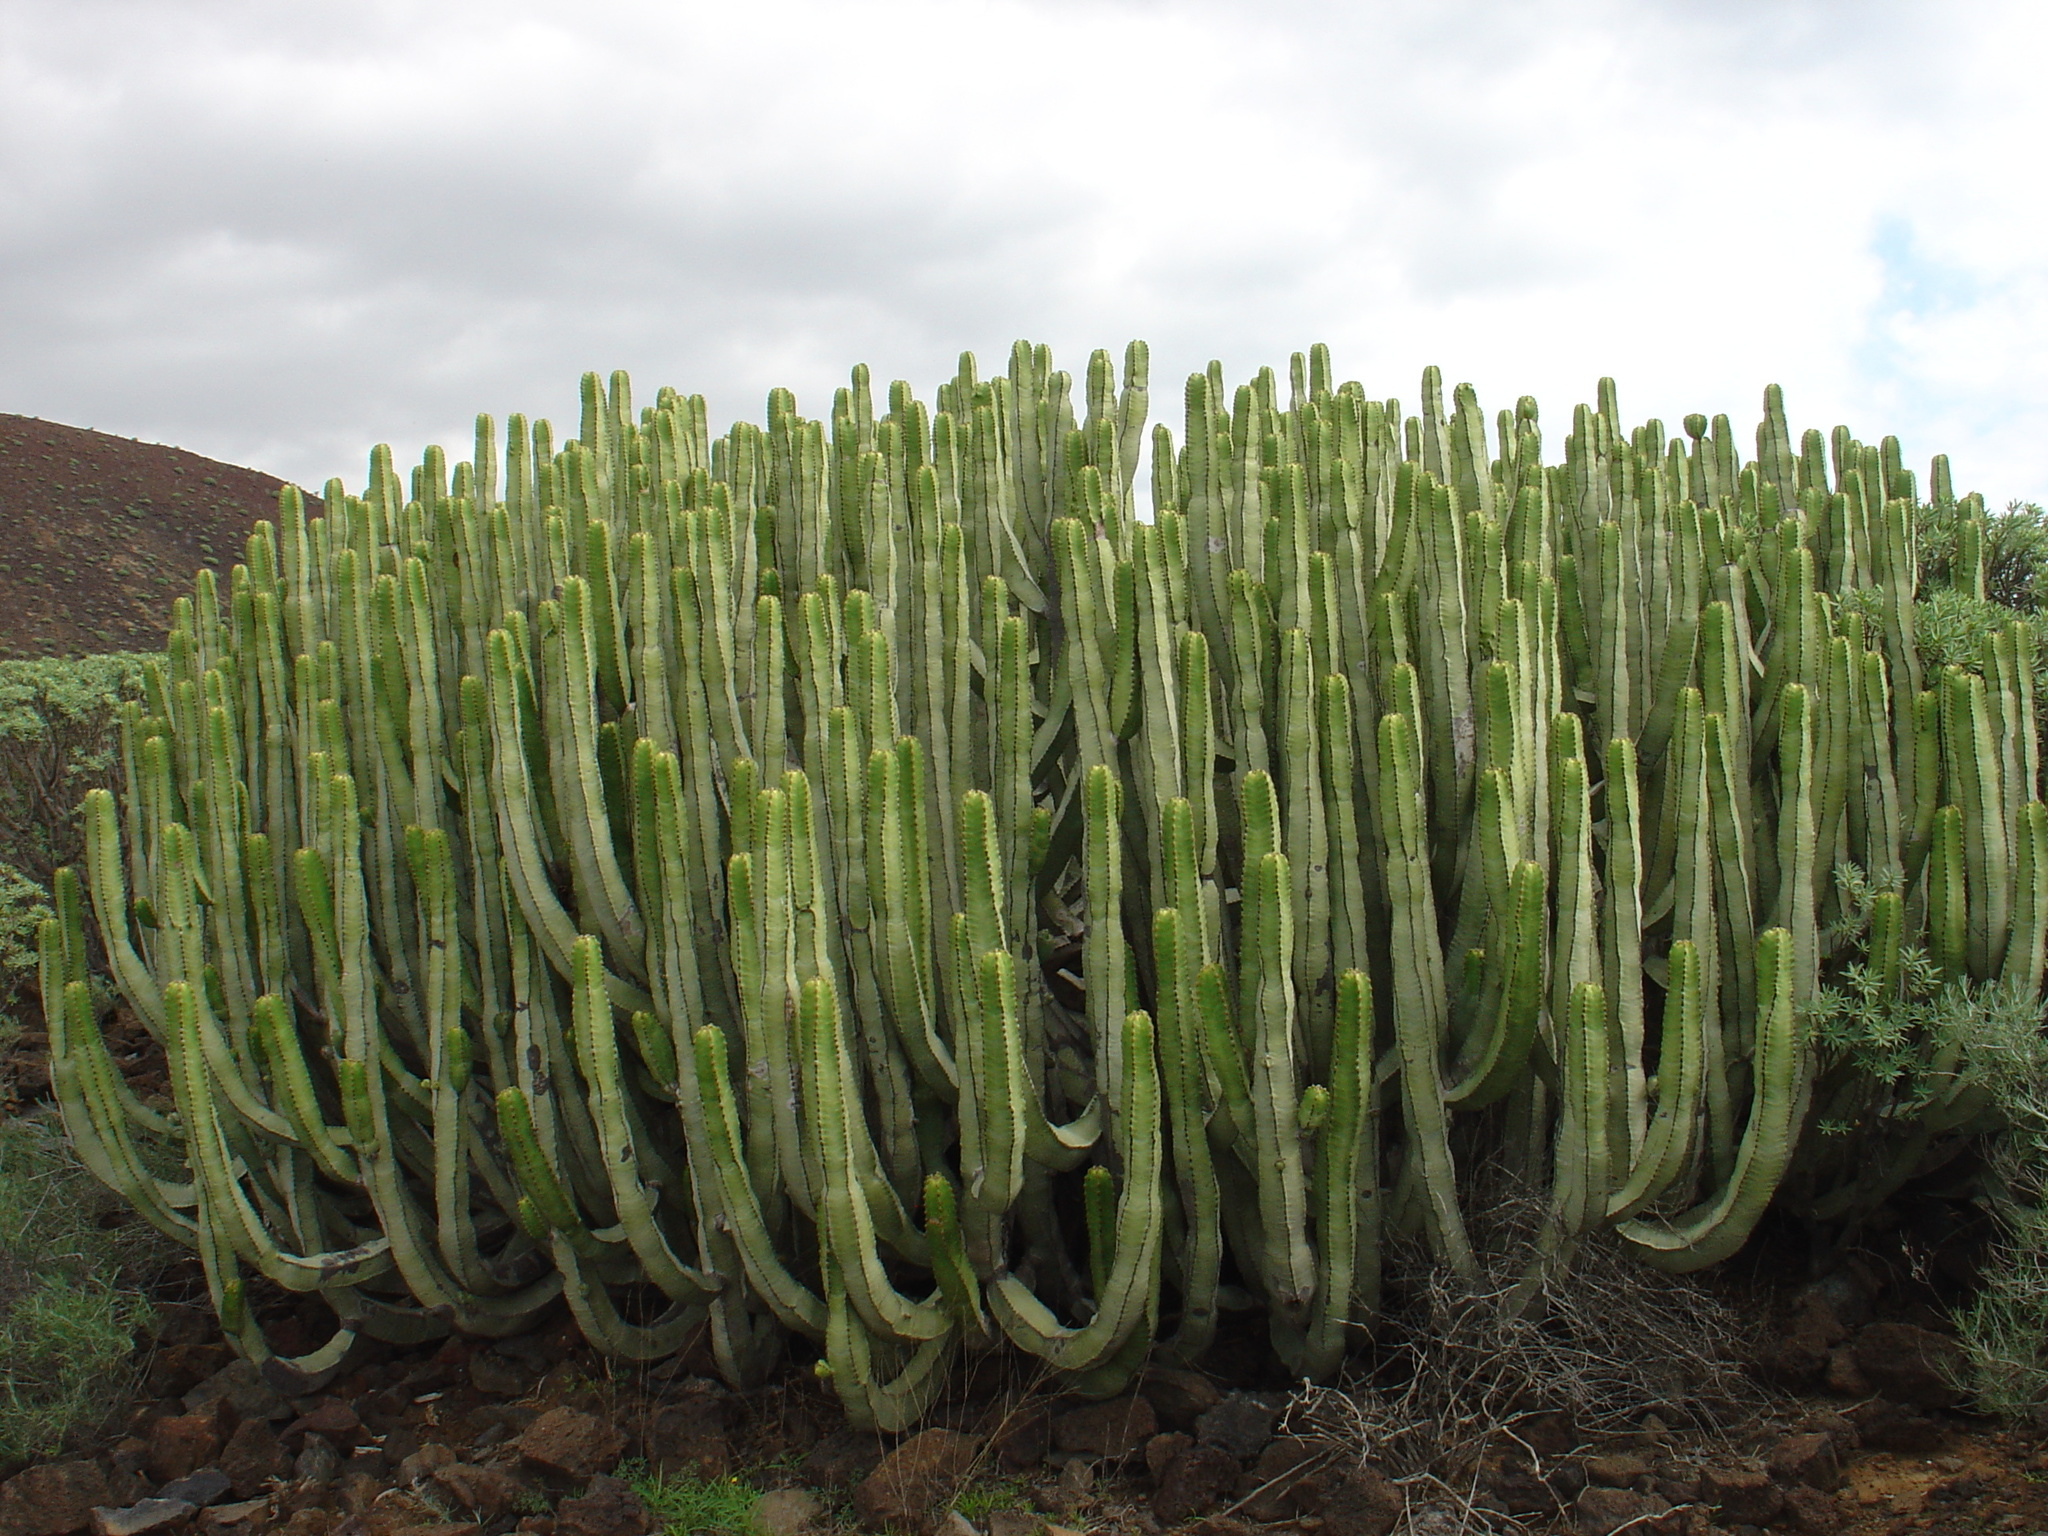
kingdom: Plantae
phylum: Tracheophyta
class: Magnoliopsida
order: Malpighiales
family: Euphorbiaceae
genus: Euphorbia
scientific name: Euphorbia canariensis
